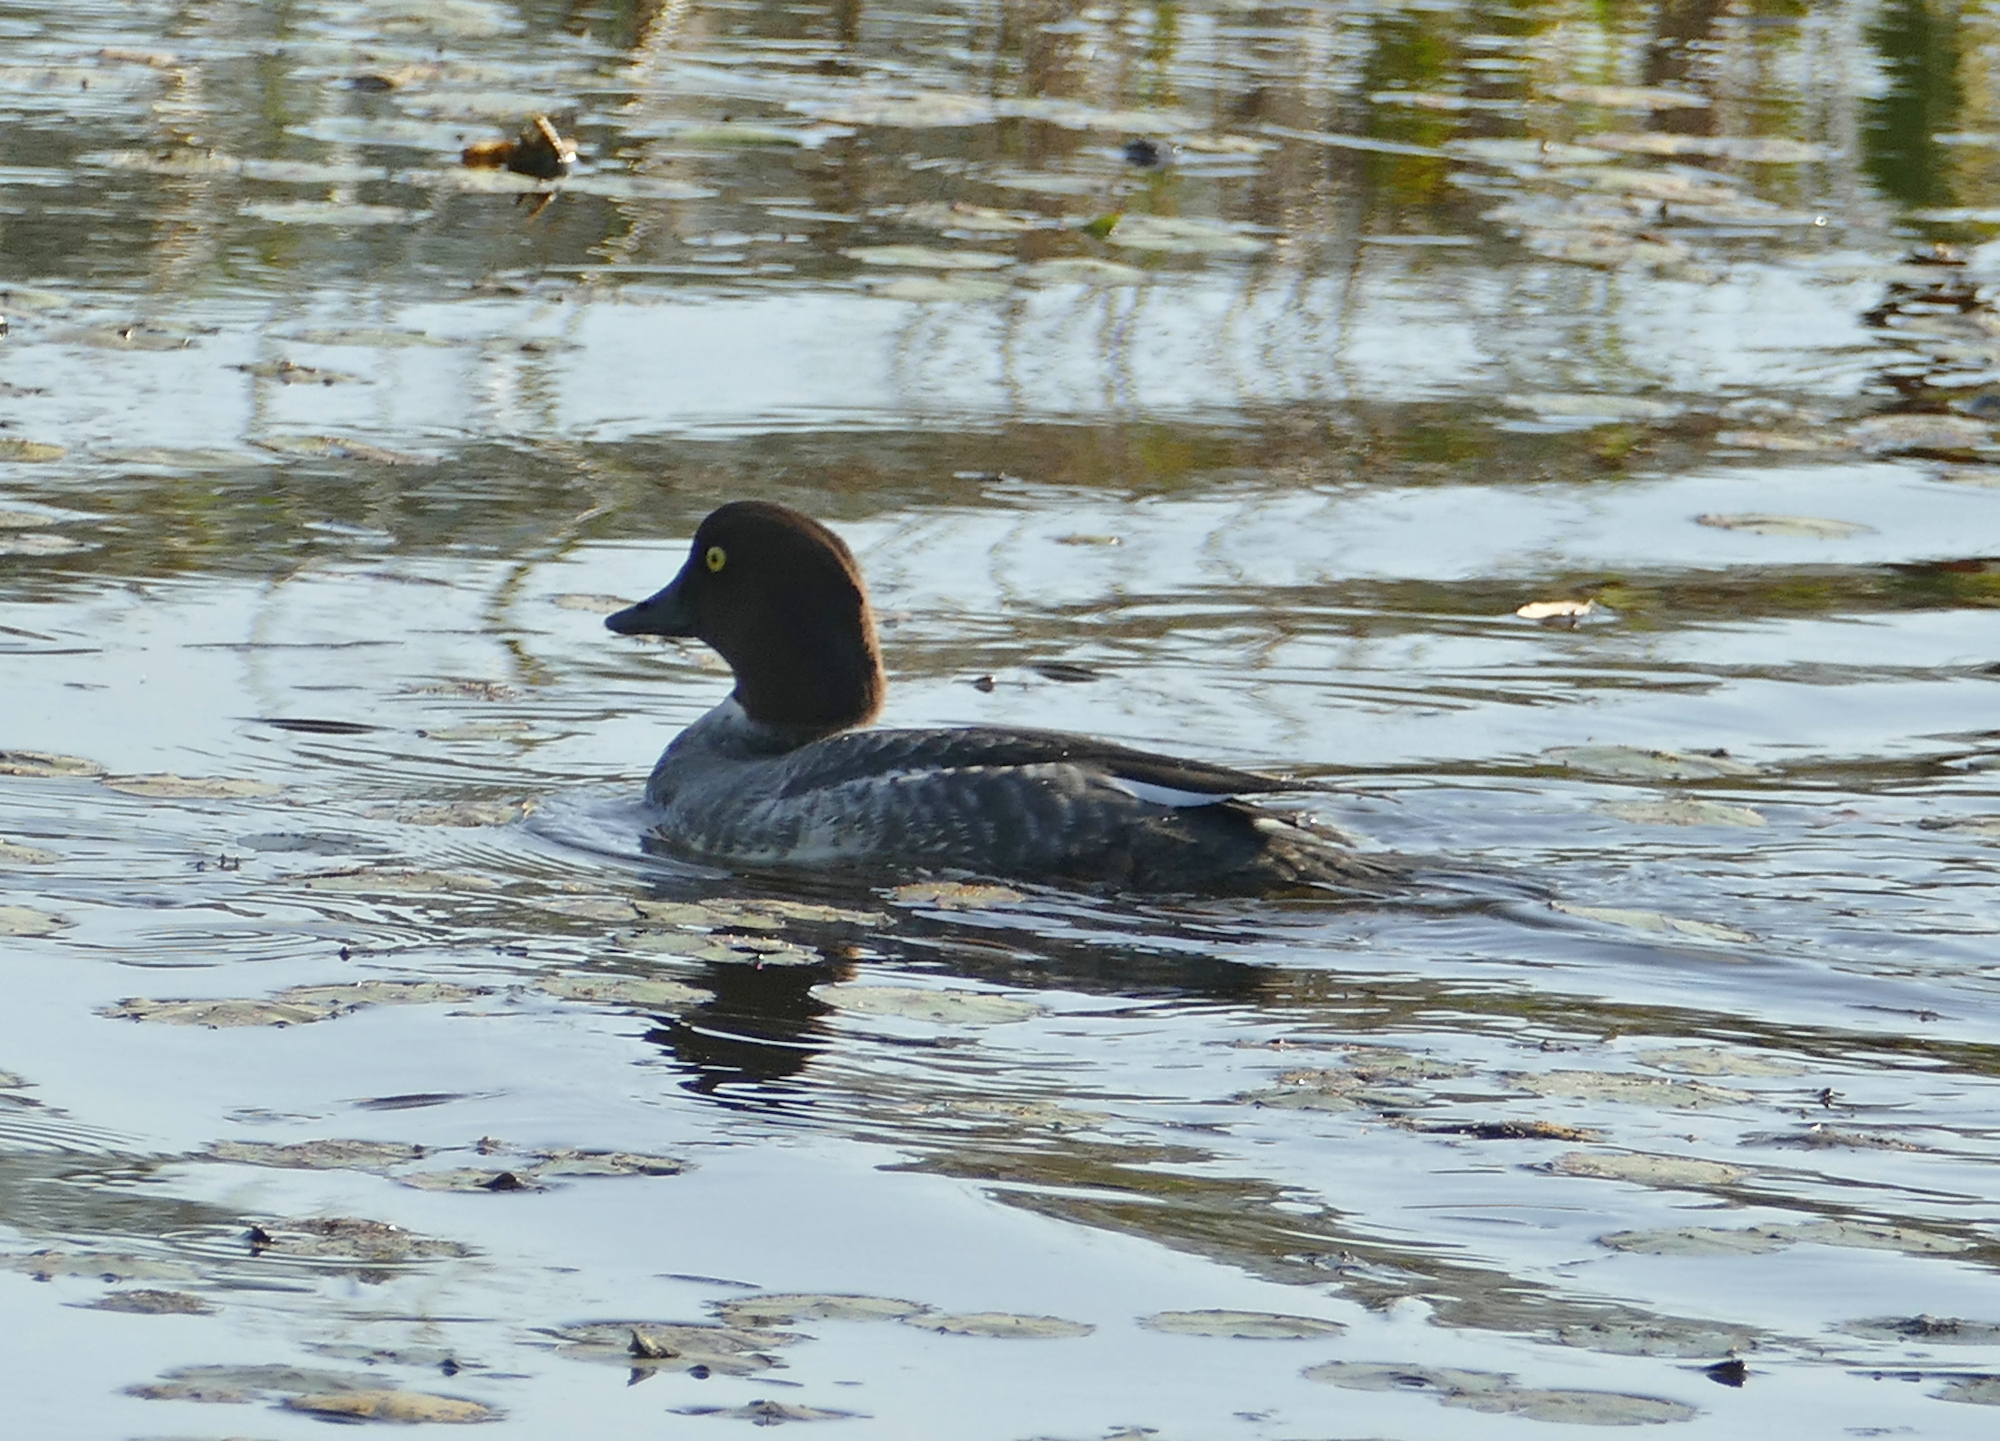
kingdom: Animalia
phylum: Chordata
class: Aves
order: Anseriformes
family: Anatidae
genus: Bucephala
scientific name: Bucephala clangula
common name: Common goldeneye
